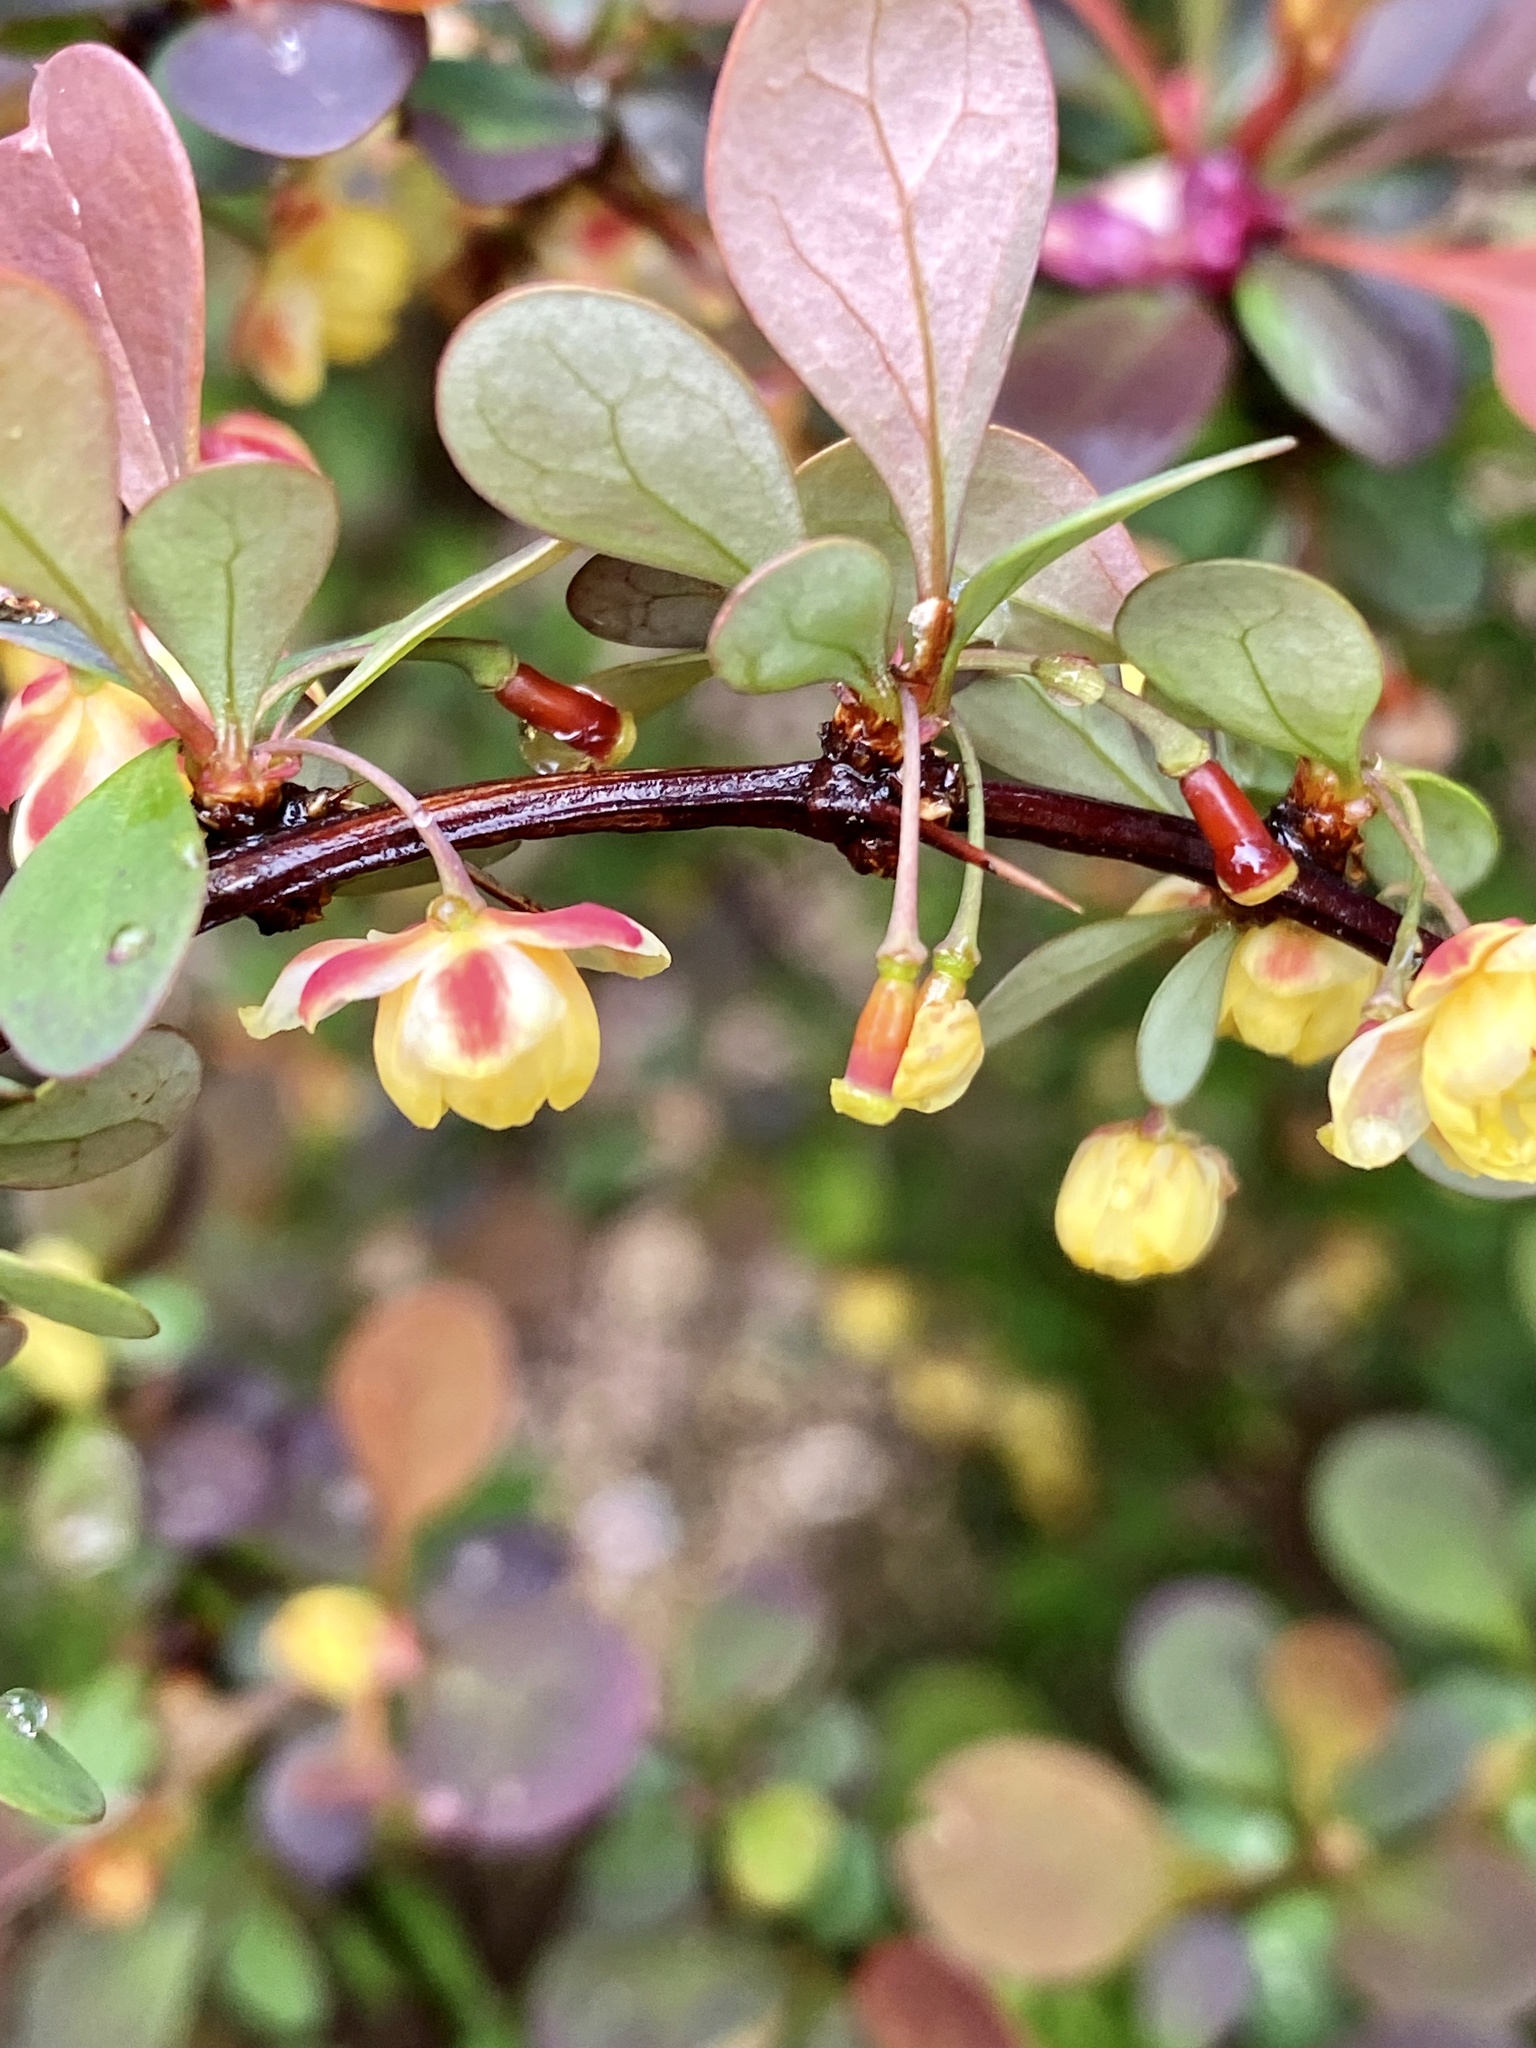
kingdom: Plantae
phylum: Tracheophyta
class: Magnoliopsida
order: Ranunculales
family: Berberidaceae
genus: Berberis
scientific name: Berberis thunbergii
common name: Japanese barberry
